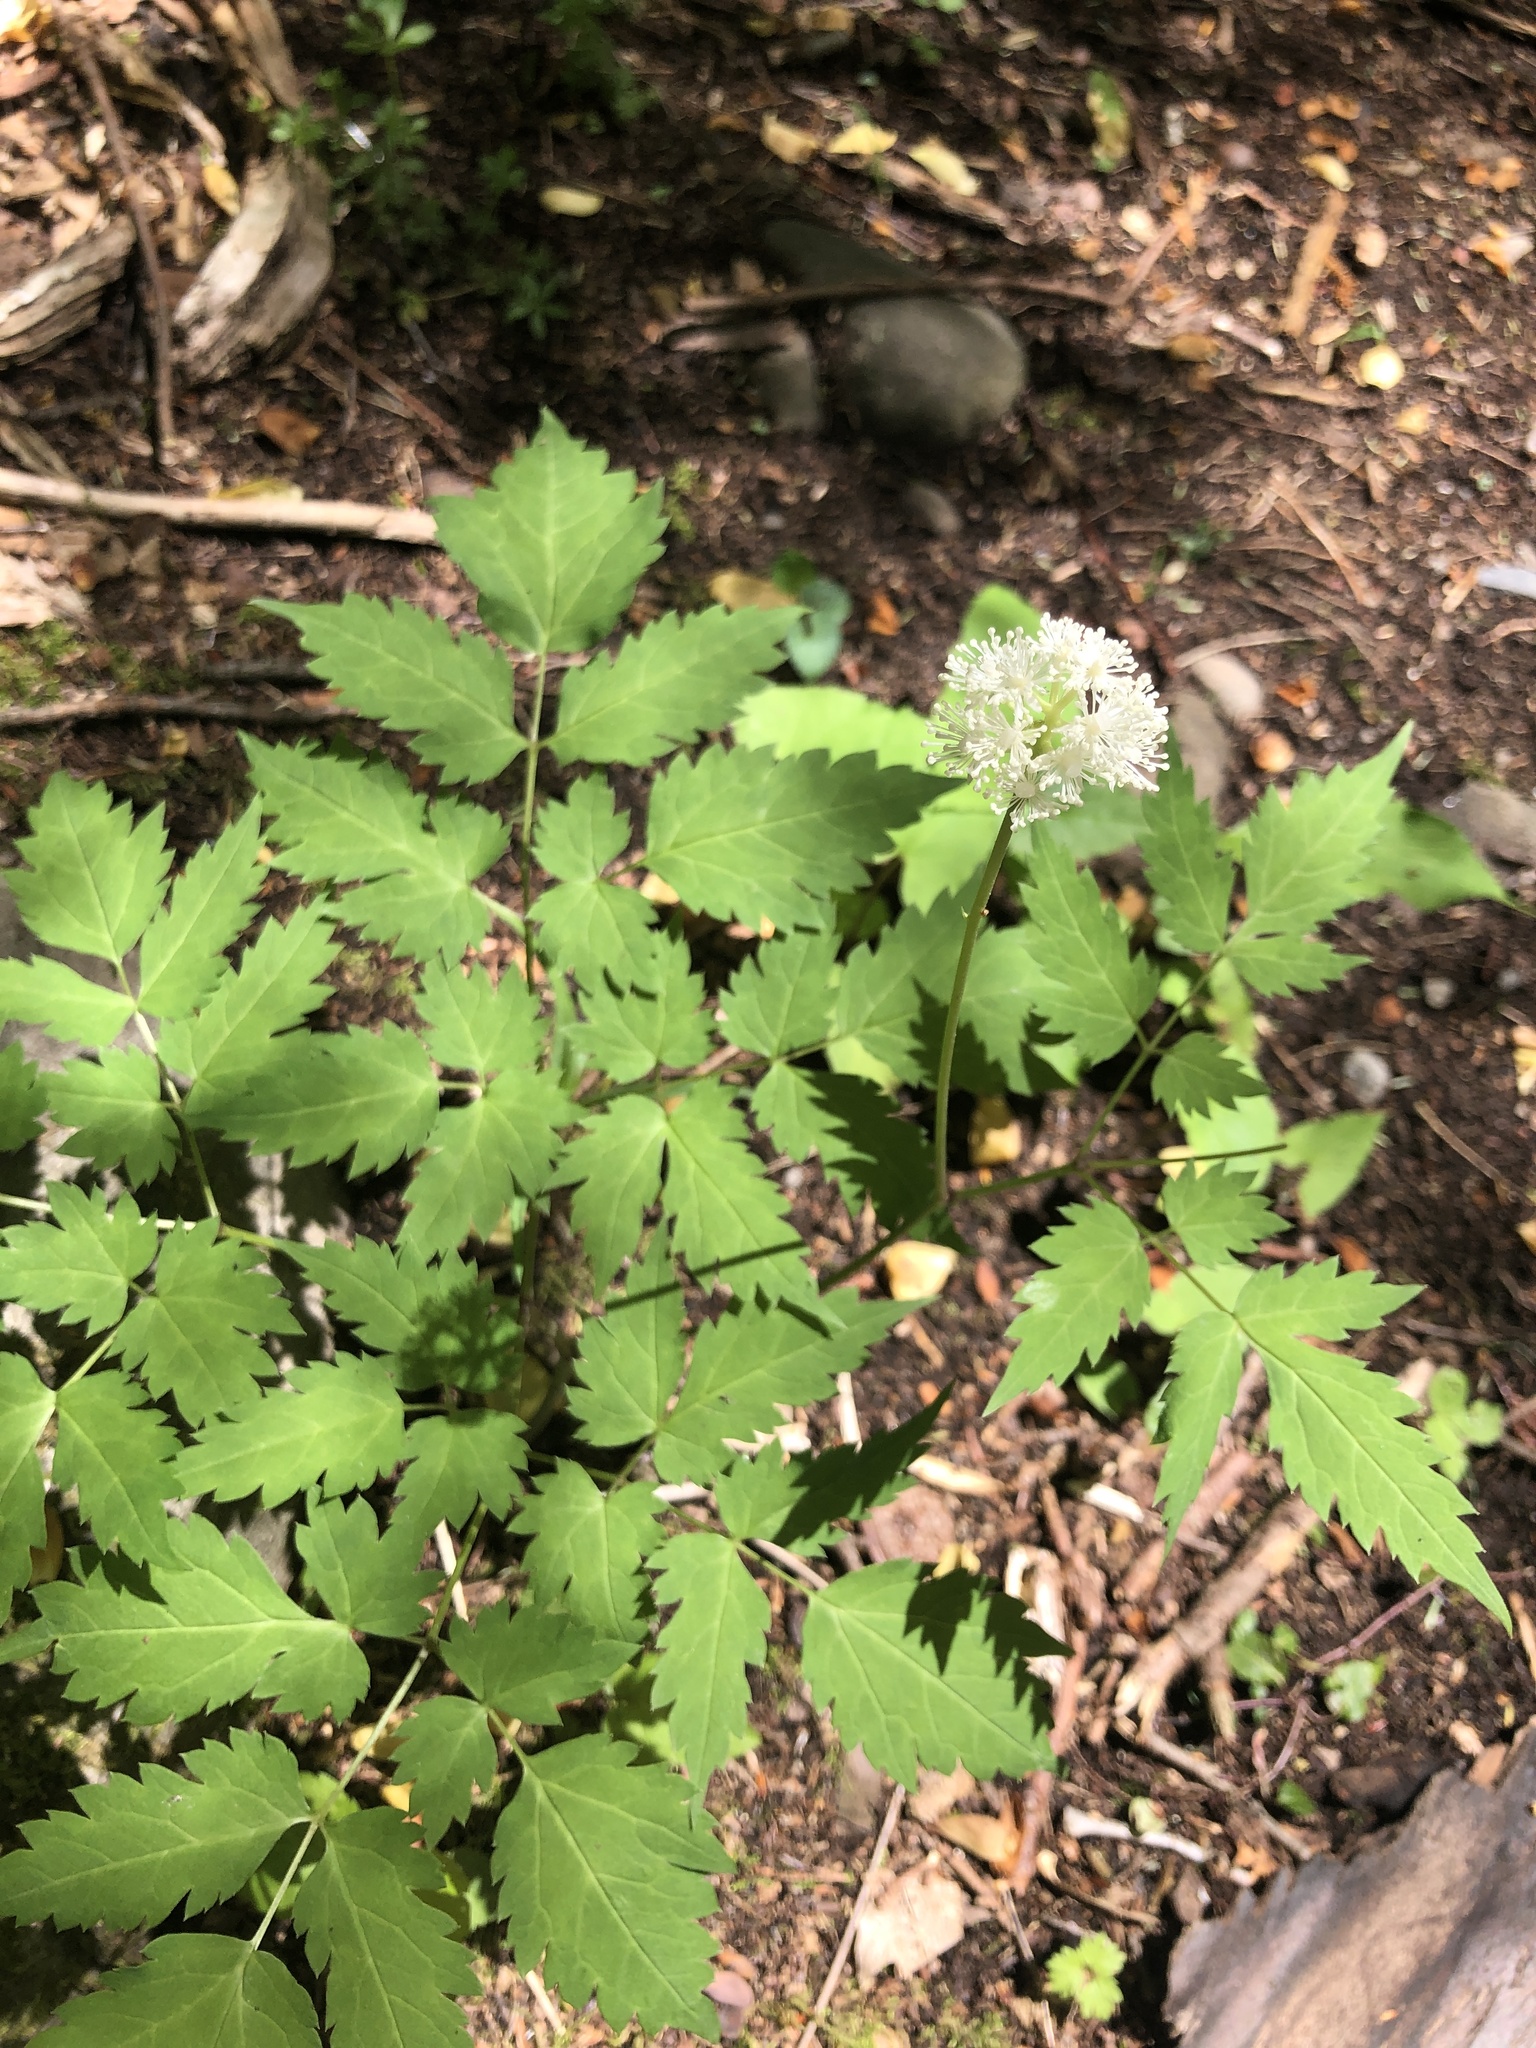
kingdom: Plantae
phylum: Tracheophyta
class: Magnoliopsida
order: Ranunculales
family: Ranunculaceae
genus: Actaea
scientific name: Actaea pachypoda
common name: Doll's-eyes
